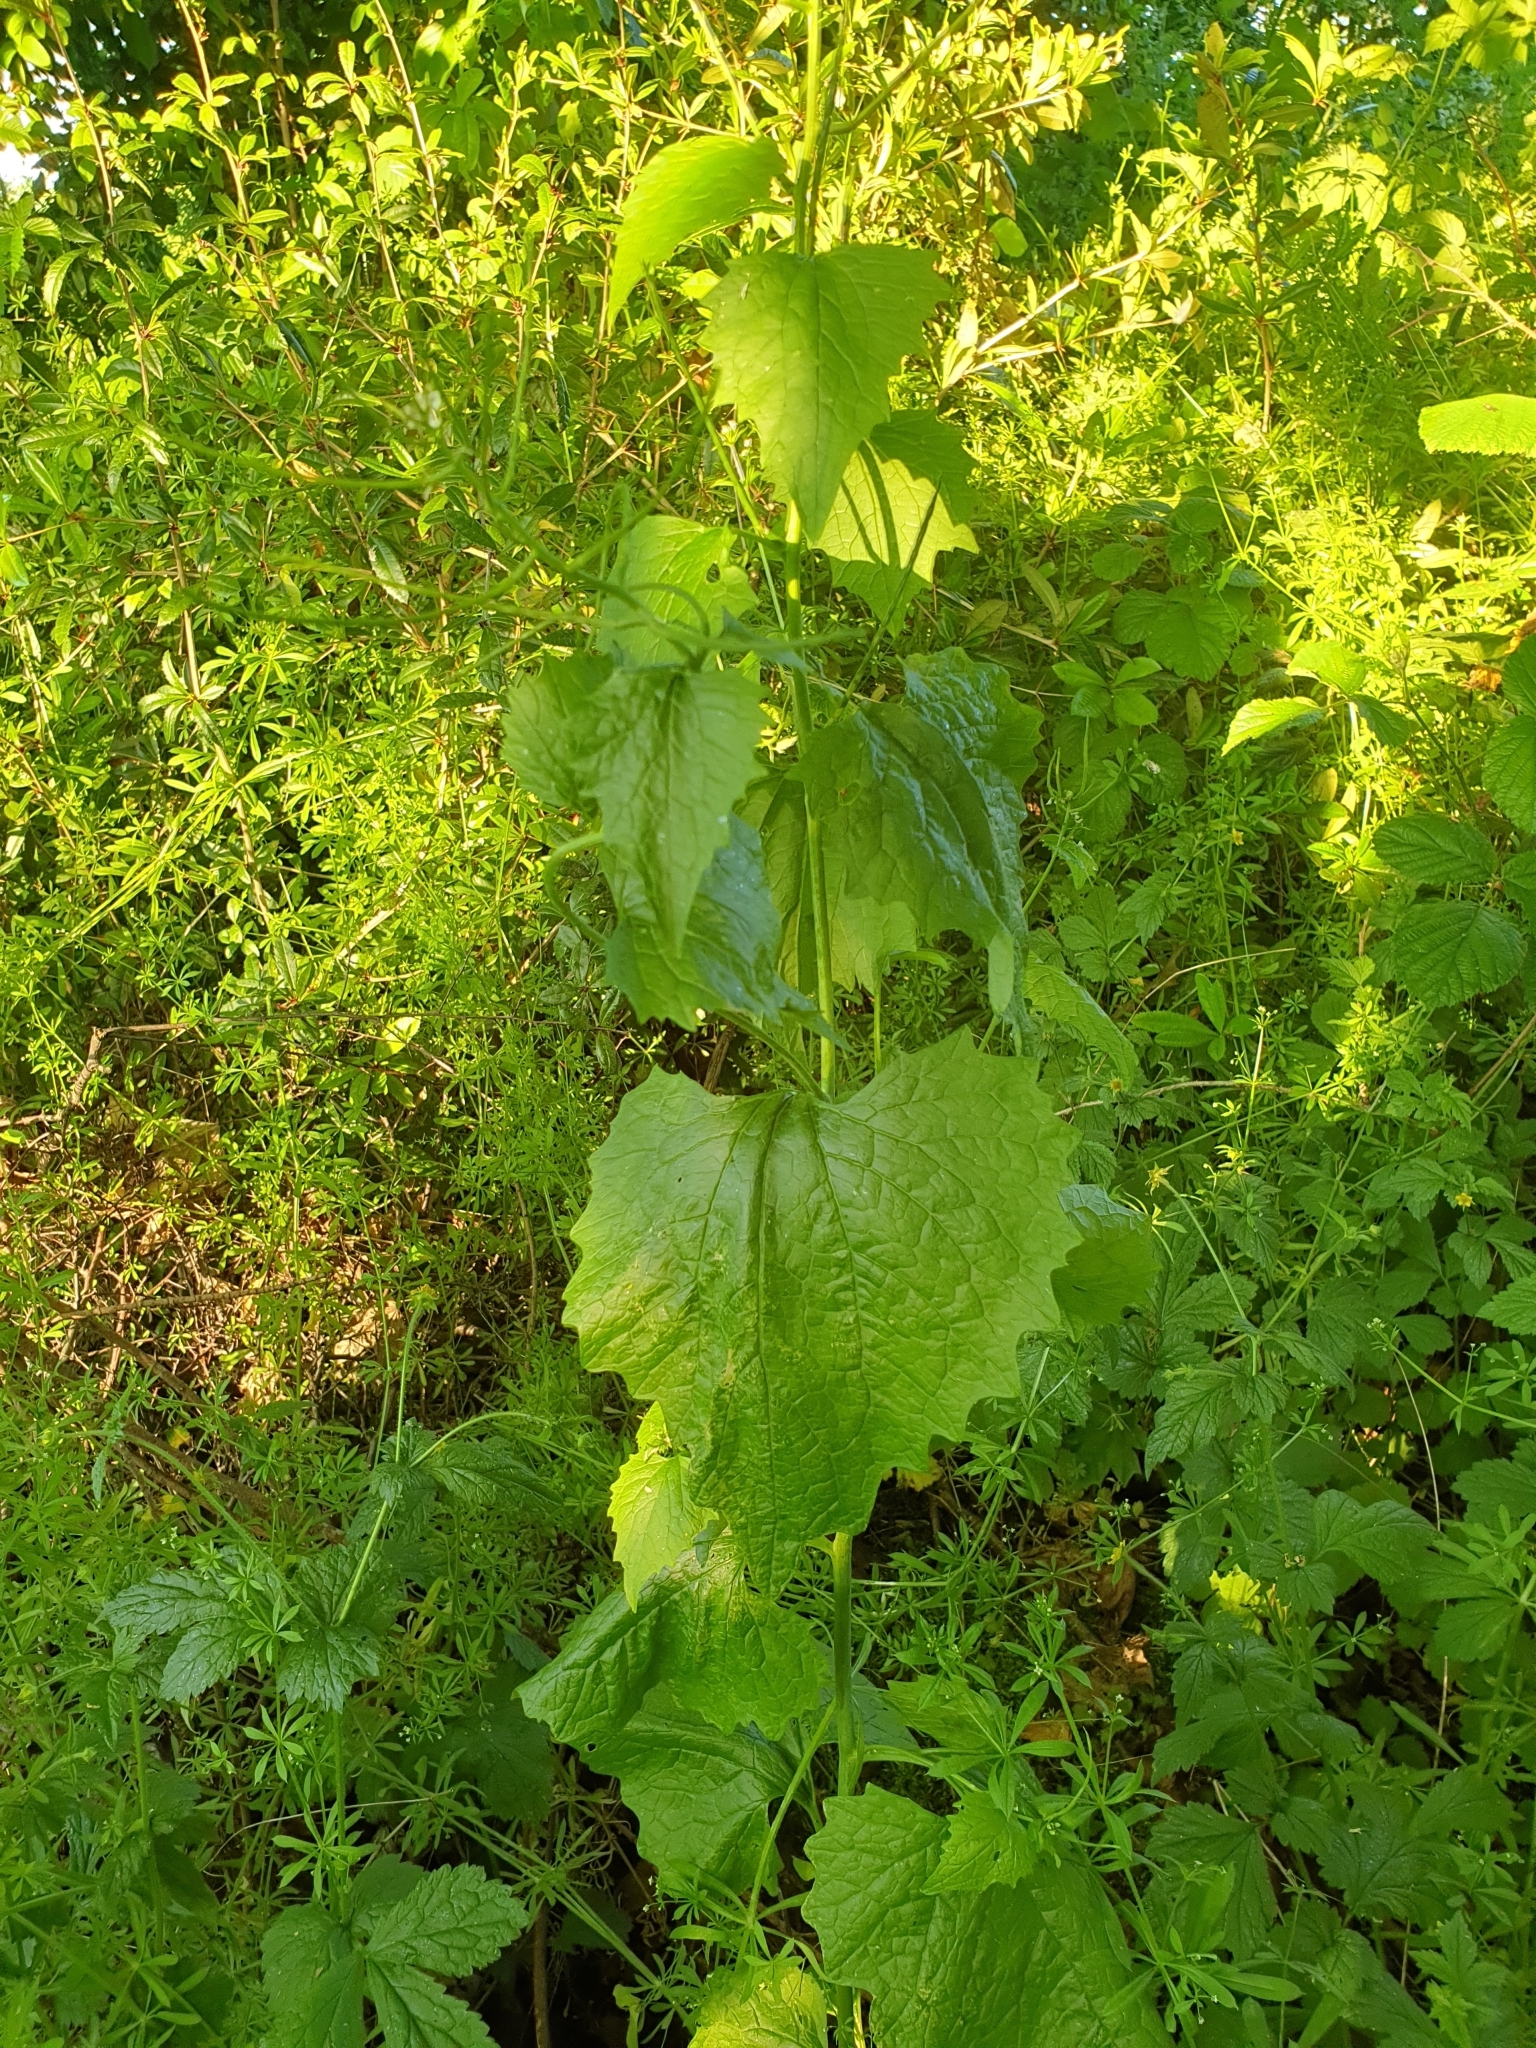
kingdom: Plantae
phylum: Tracheophyta
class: Magnoliopsida
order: Brassicales
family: Brassicaceae
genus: Alliaria
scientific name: Alliaria petiolata
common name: Garlic mustard
